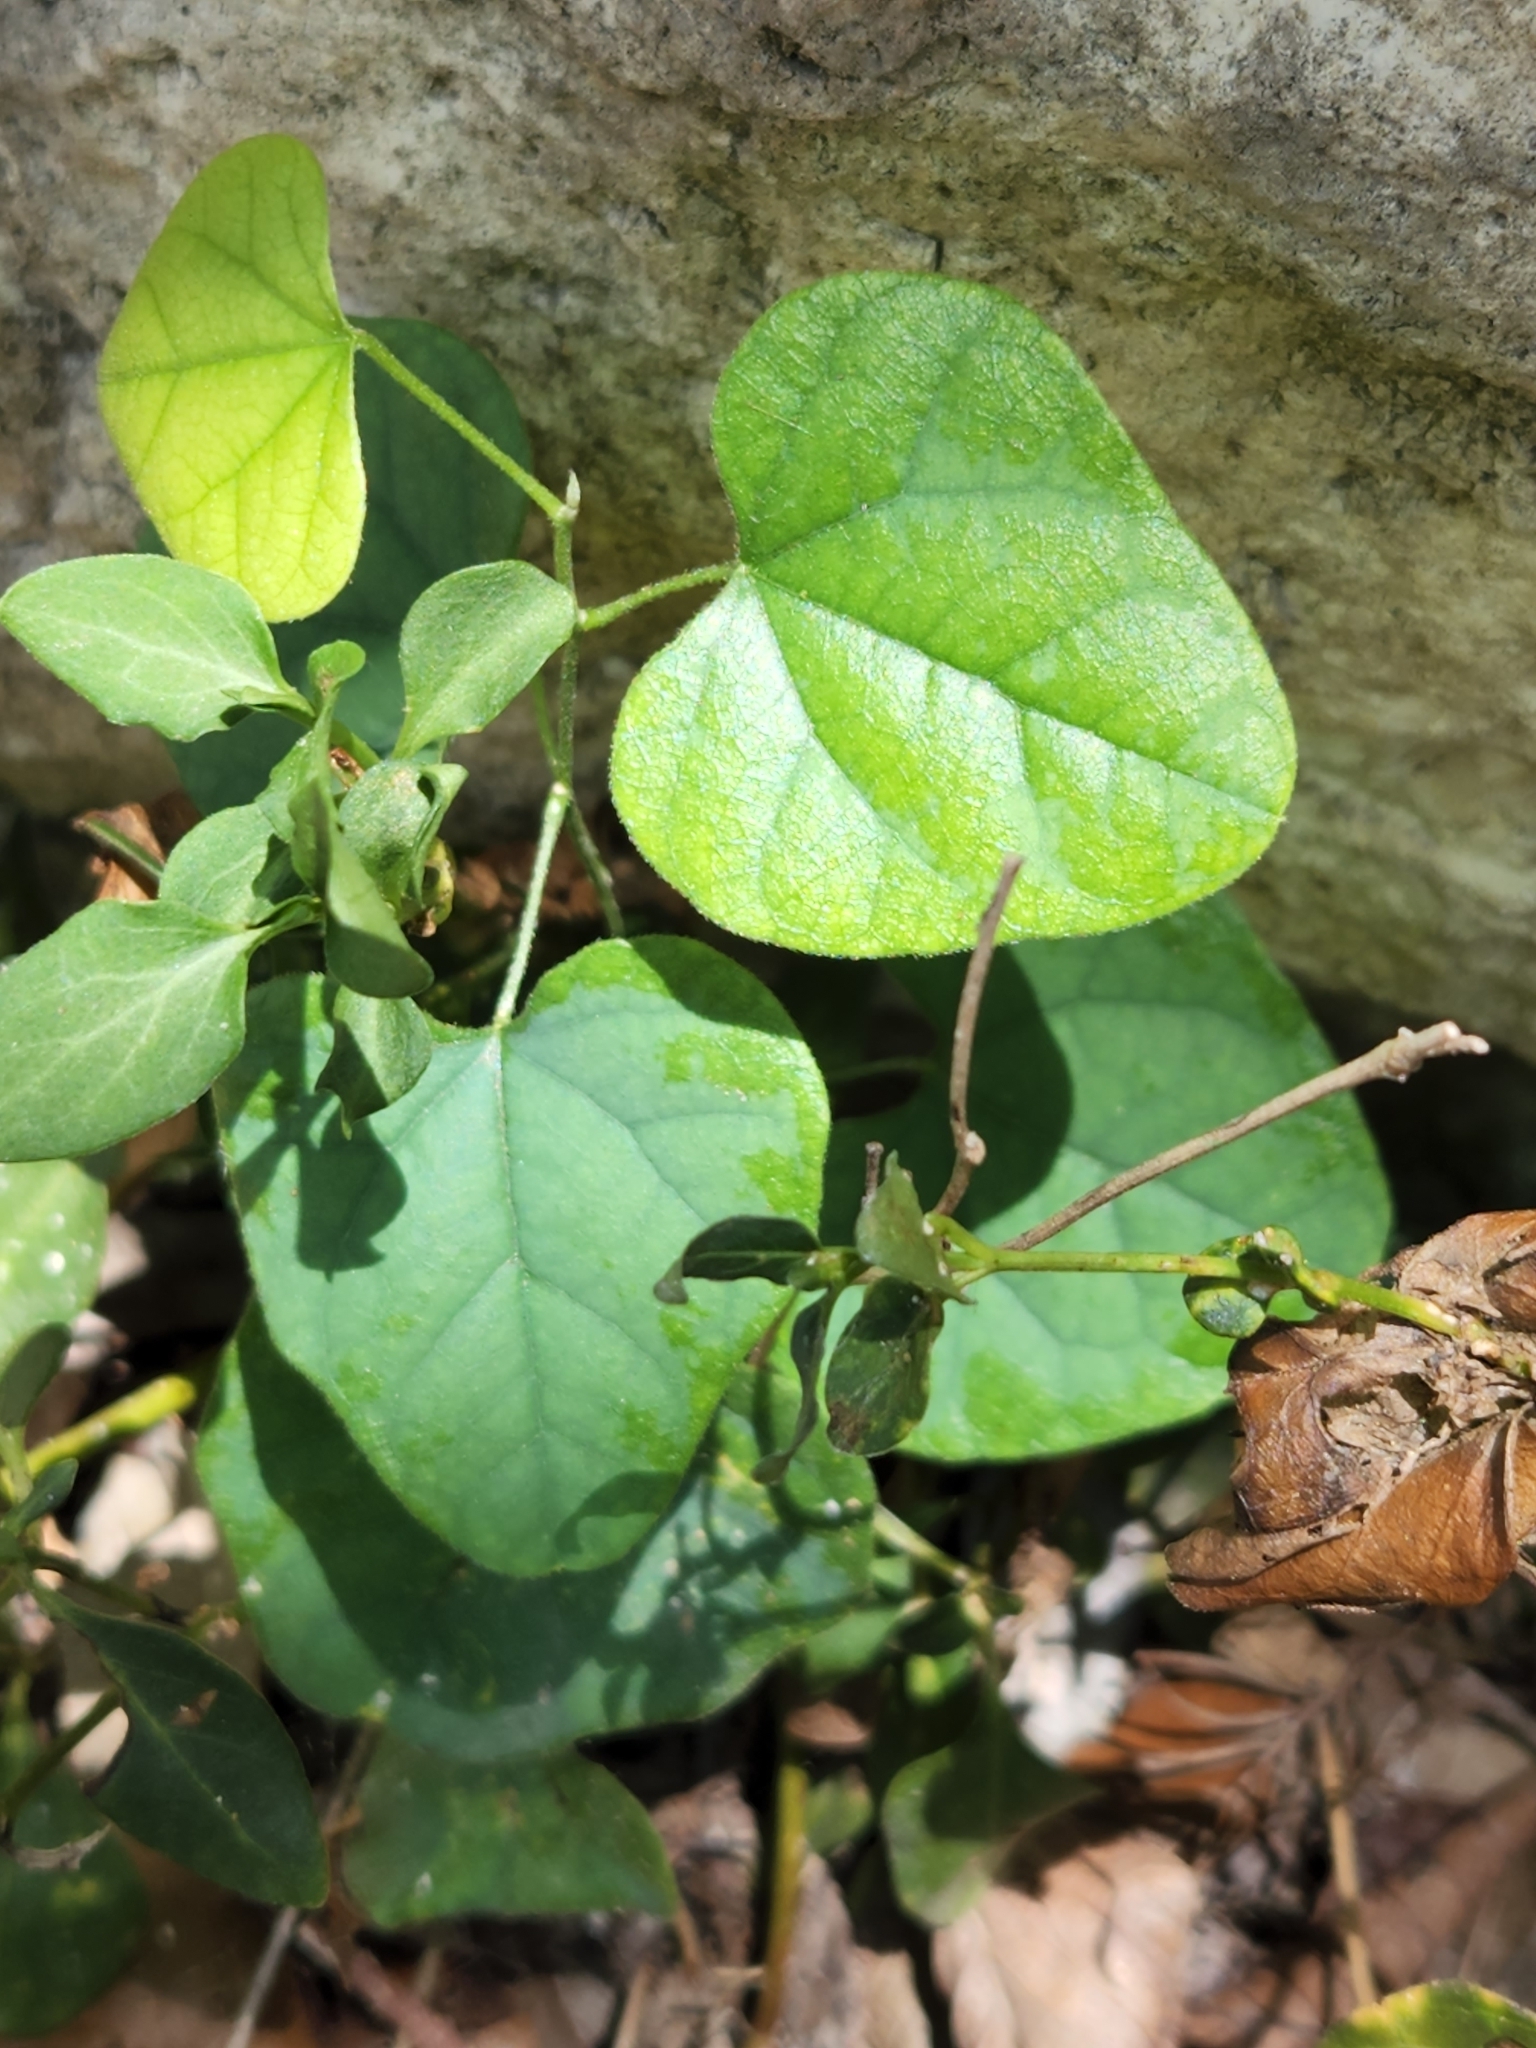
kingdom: Plantae
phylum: Tracheophyta
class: Magnoliopsida
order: Ranunculales
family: Menispermaceae
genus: Cocculus
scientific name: Cocculus carolinus
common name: Carolina moonseed
